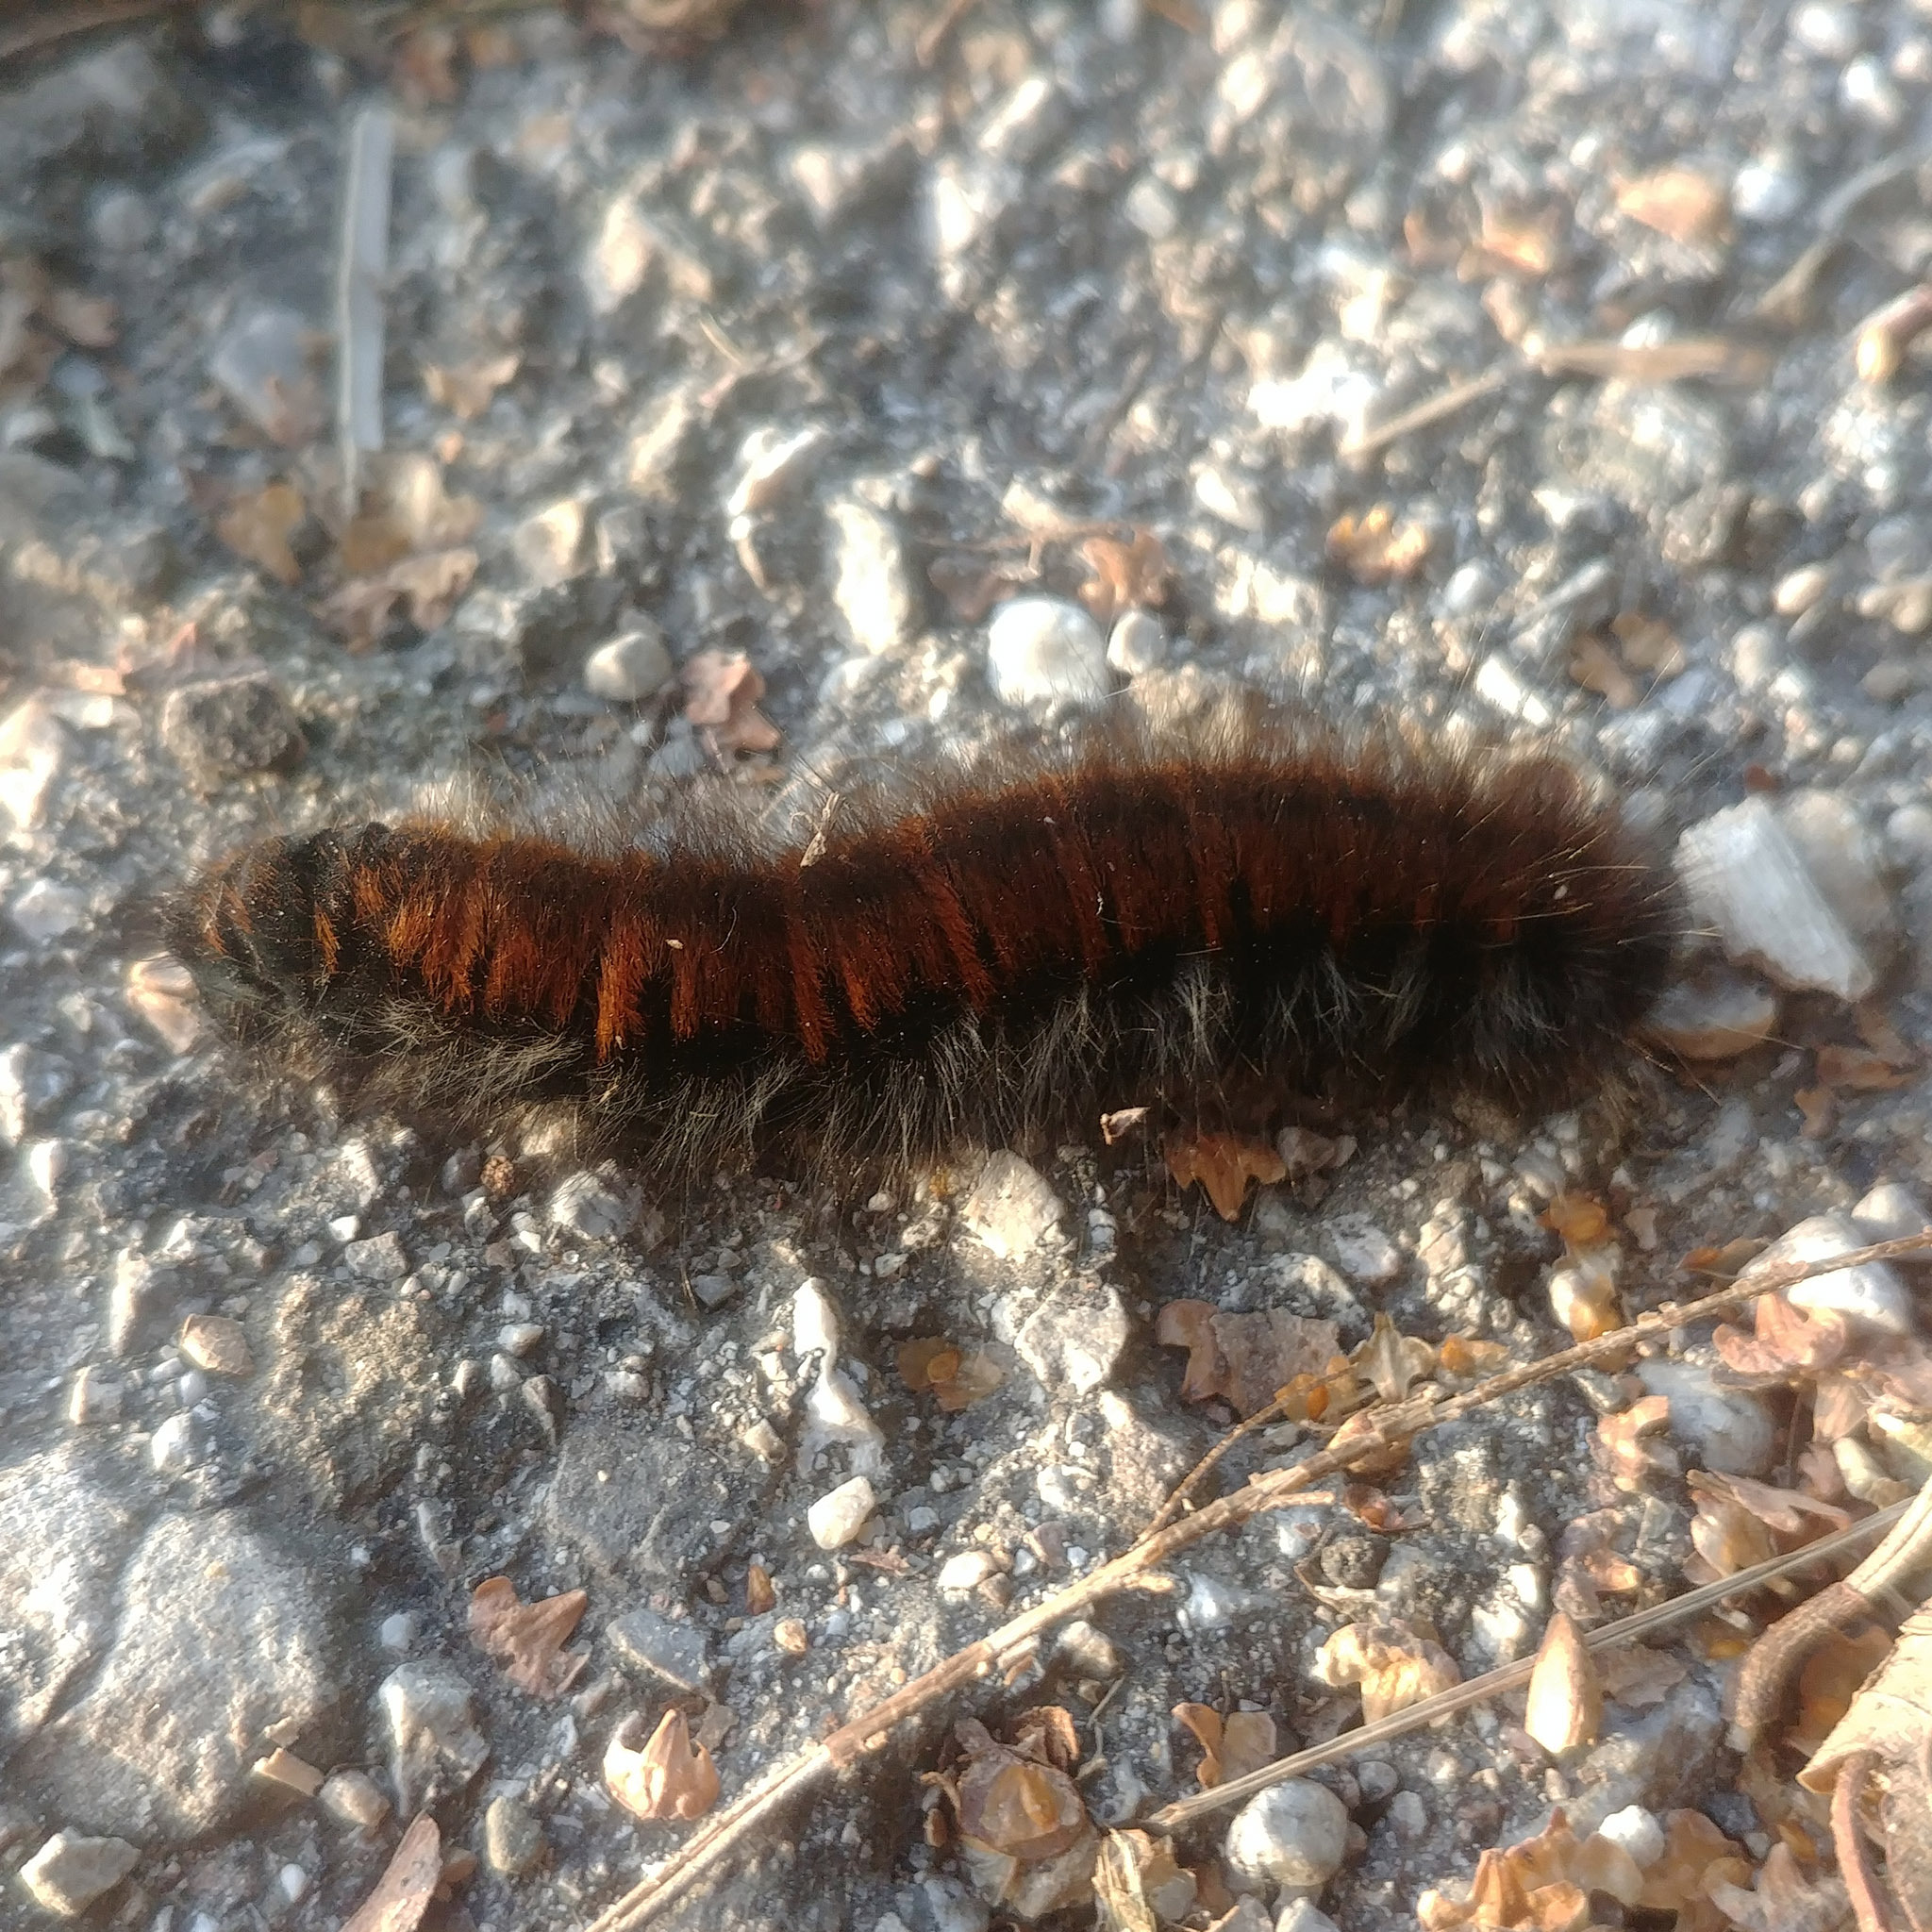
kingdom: Animalia
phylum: Arthropoda
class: Insecta
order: Lepidoptera
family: Lasiocampidae
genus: Macrothylacia
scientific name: Macrothylacia rubi
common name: Fox moth
